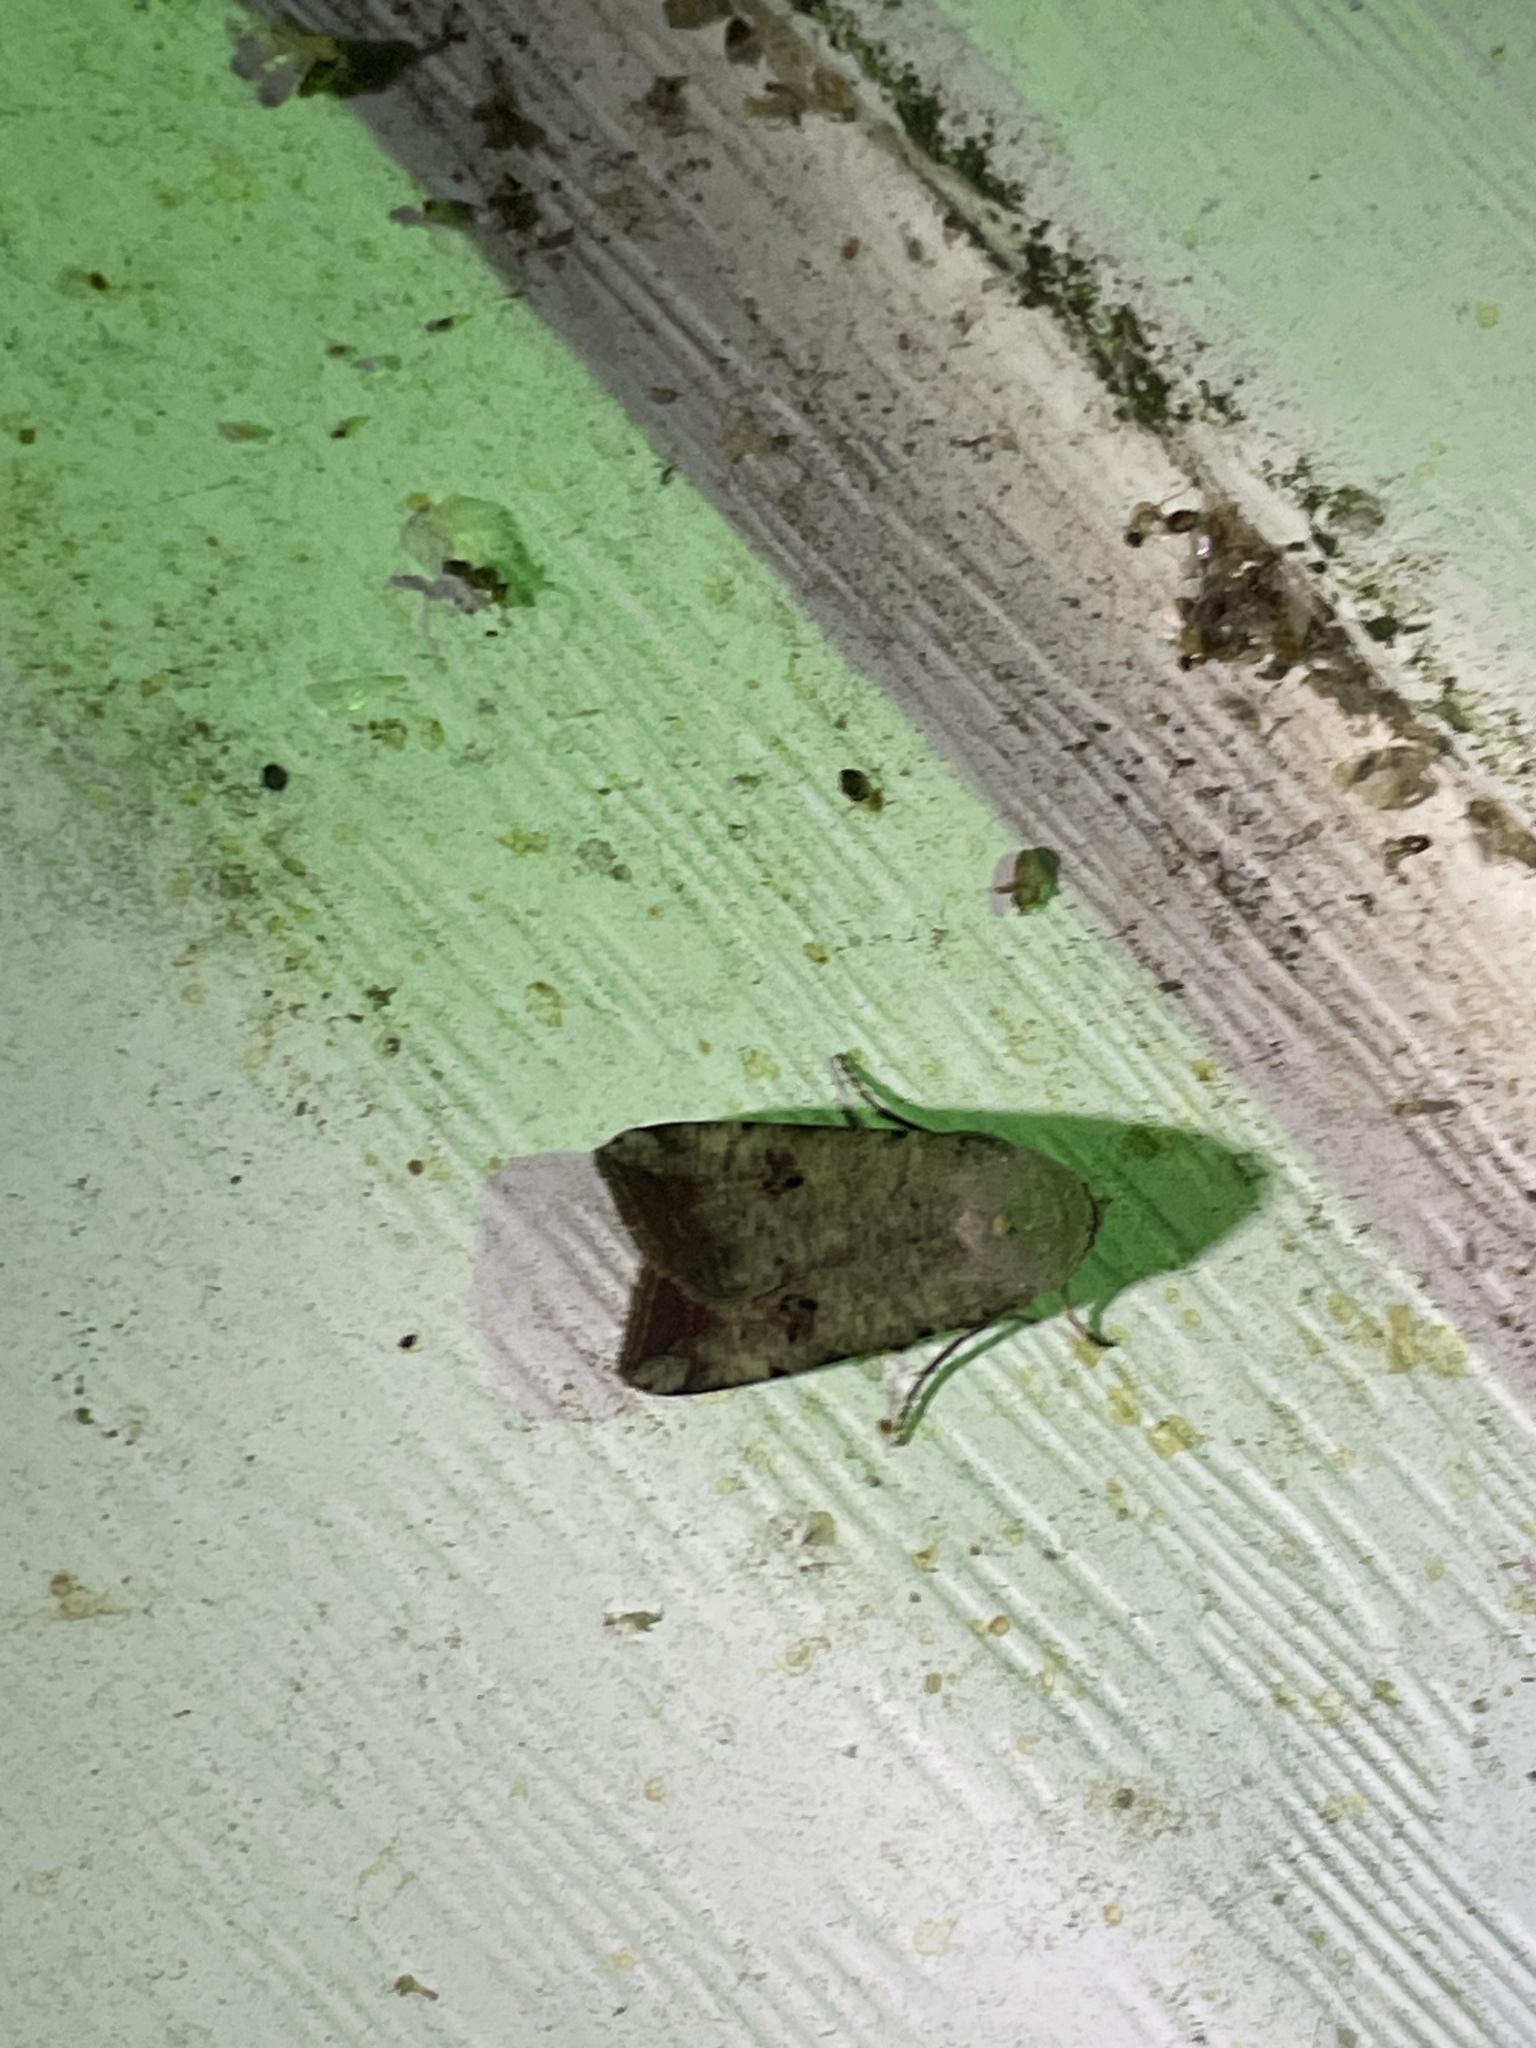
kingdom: Animalia
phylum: Arthropoda
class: Insecta
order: Lepidoptera
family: Noctuidae
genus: Anicla
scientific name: Anicla infecta
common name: Green cutworm
